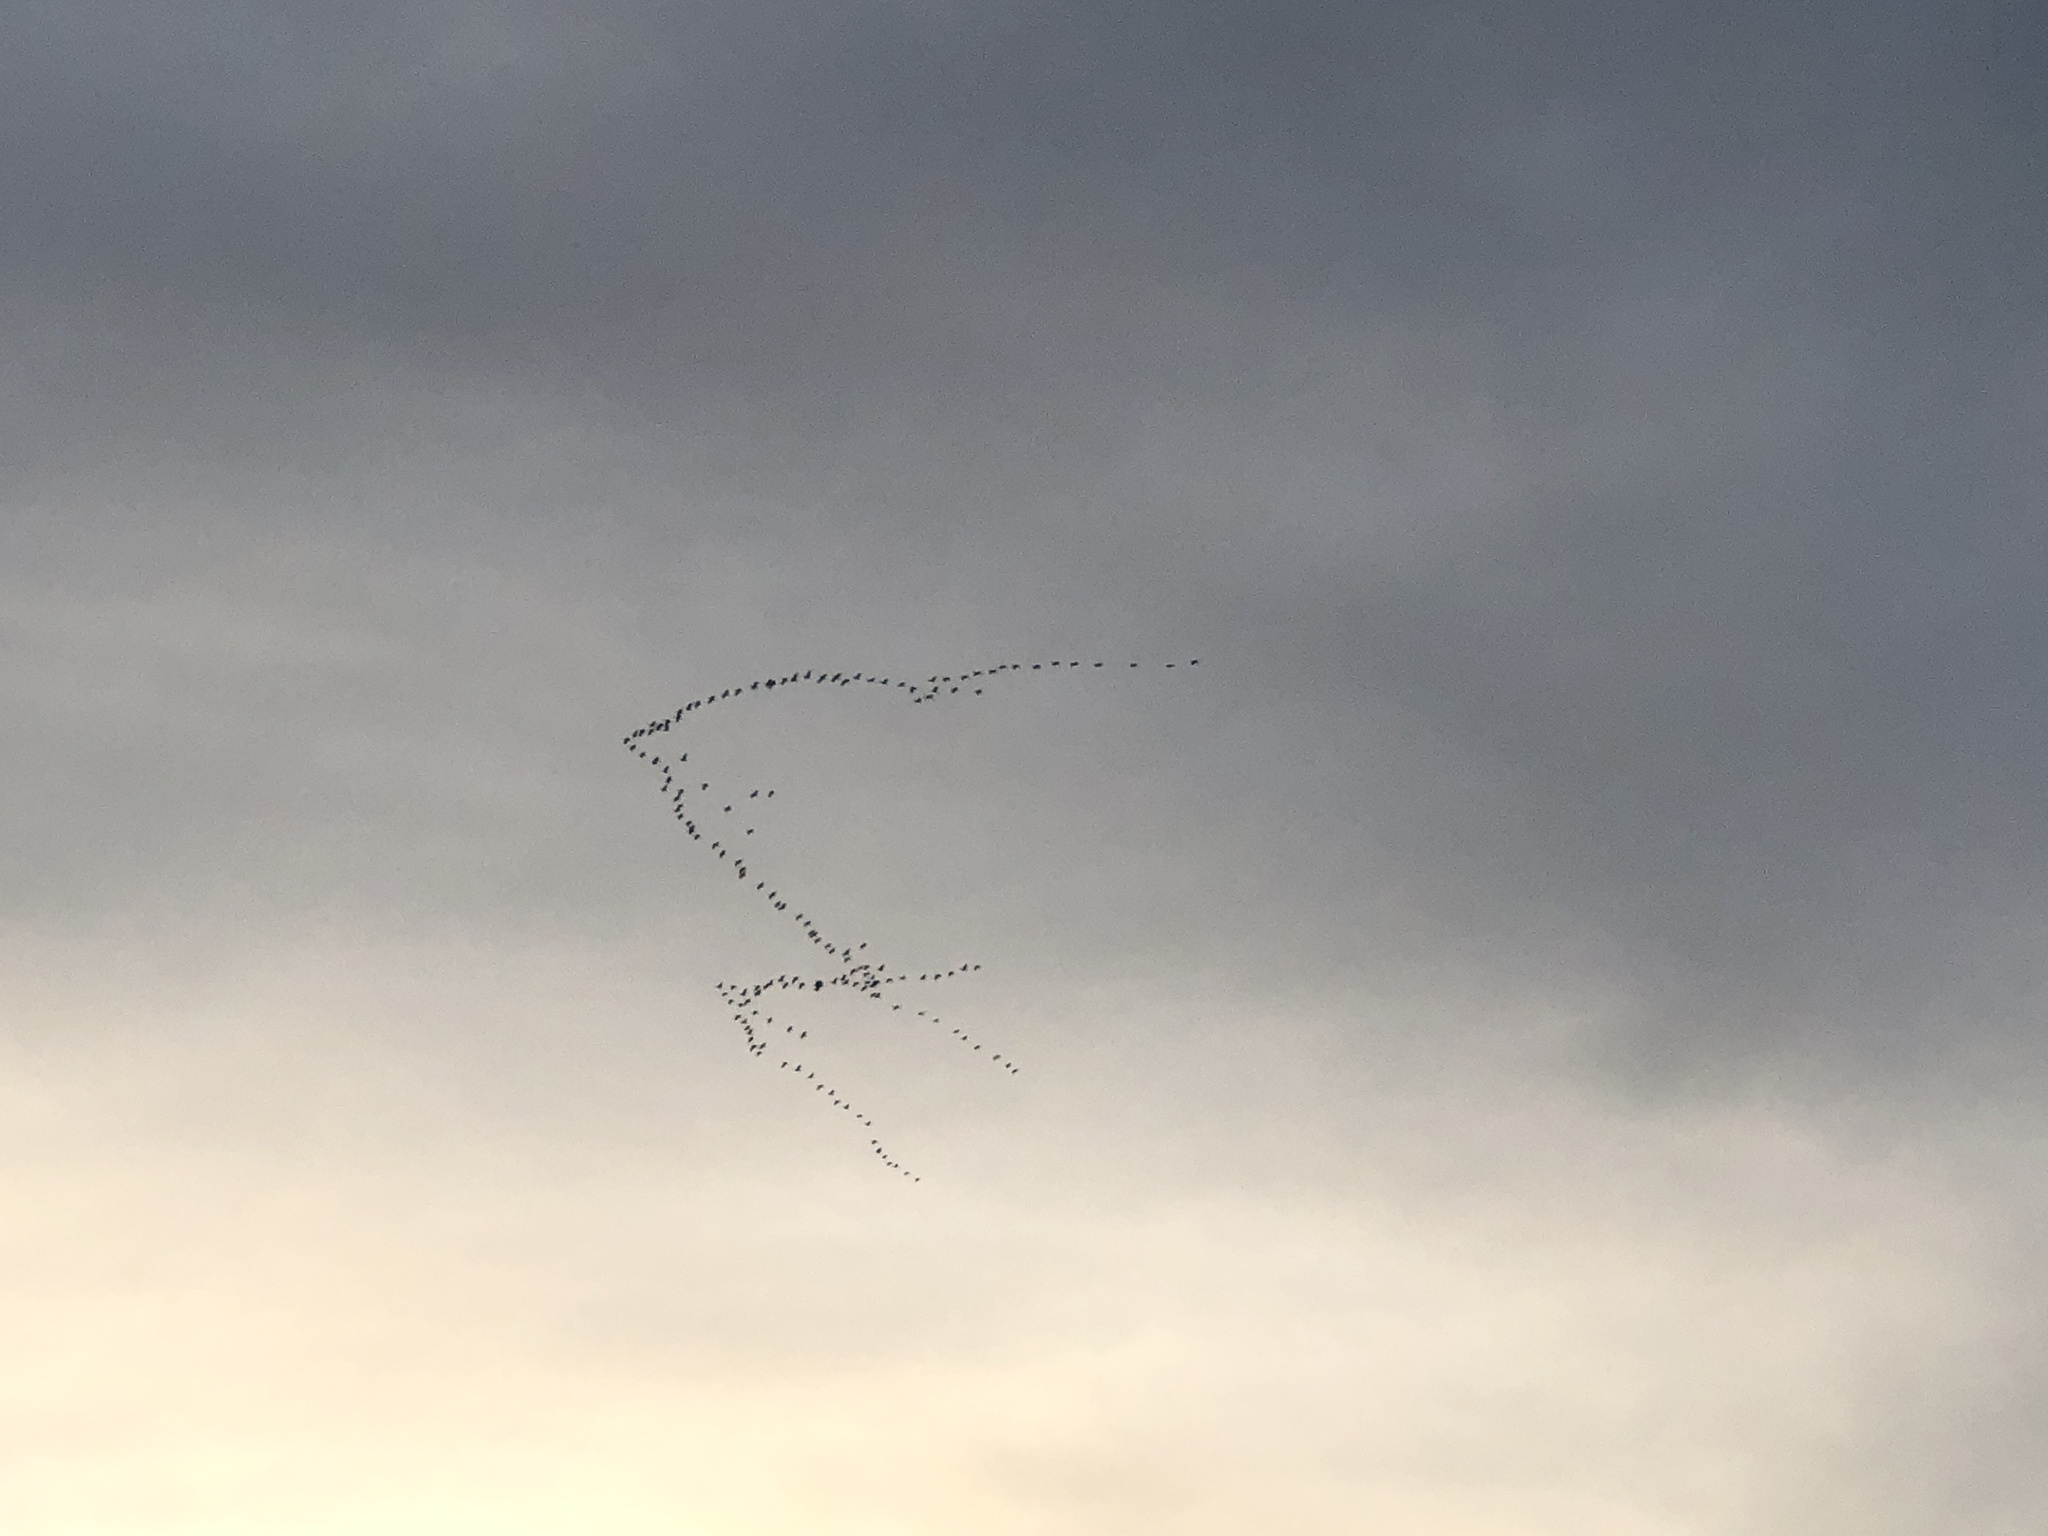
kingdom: Animalia
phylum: Chordata
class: Aves
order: Gruiformes
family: Gruidae
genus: Grus
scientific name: Grus grus
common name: Common crane
